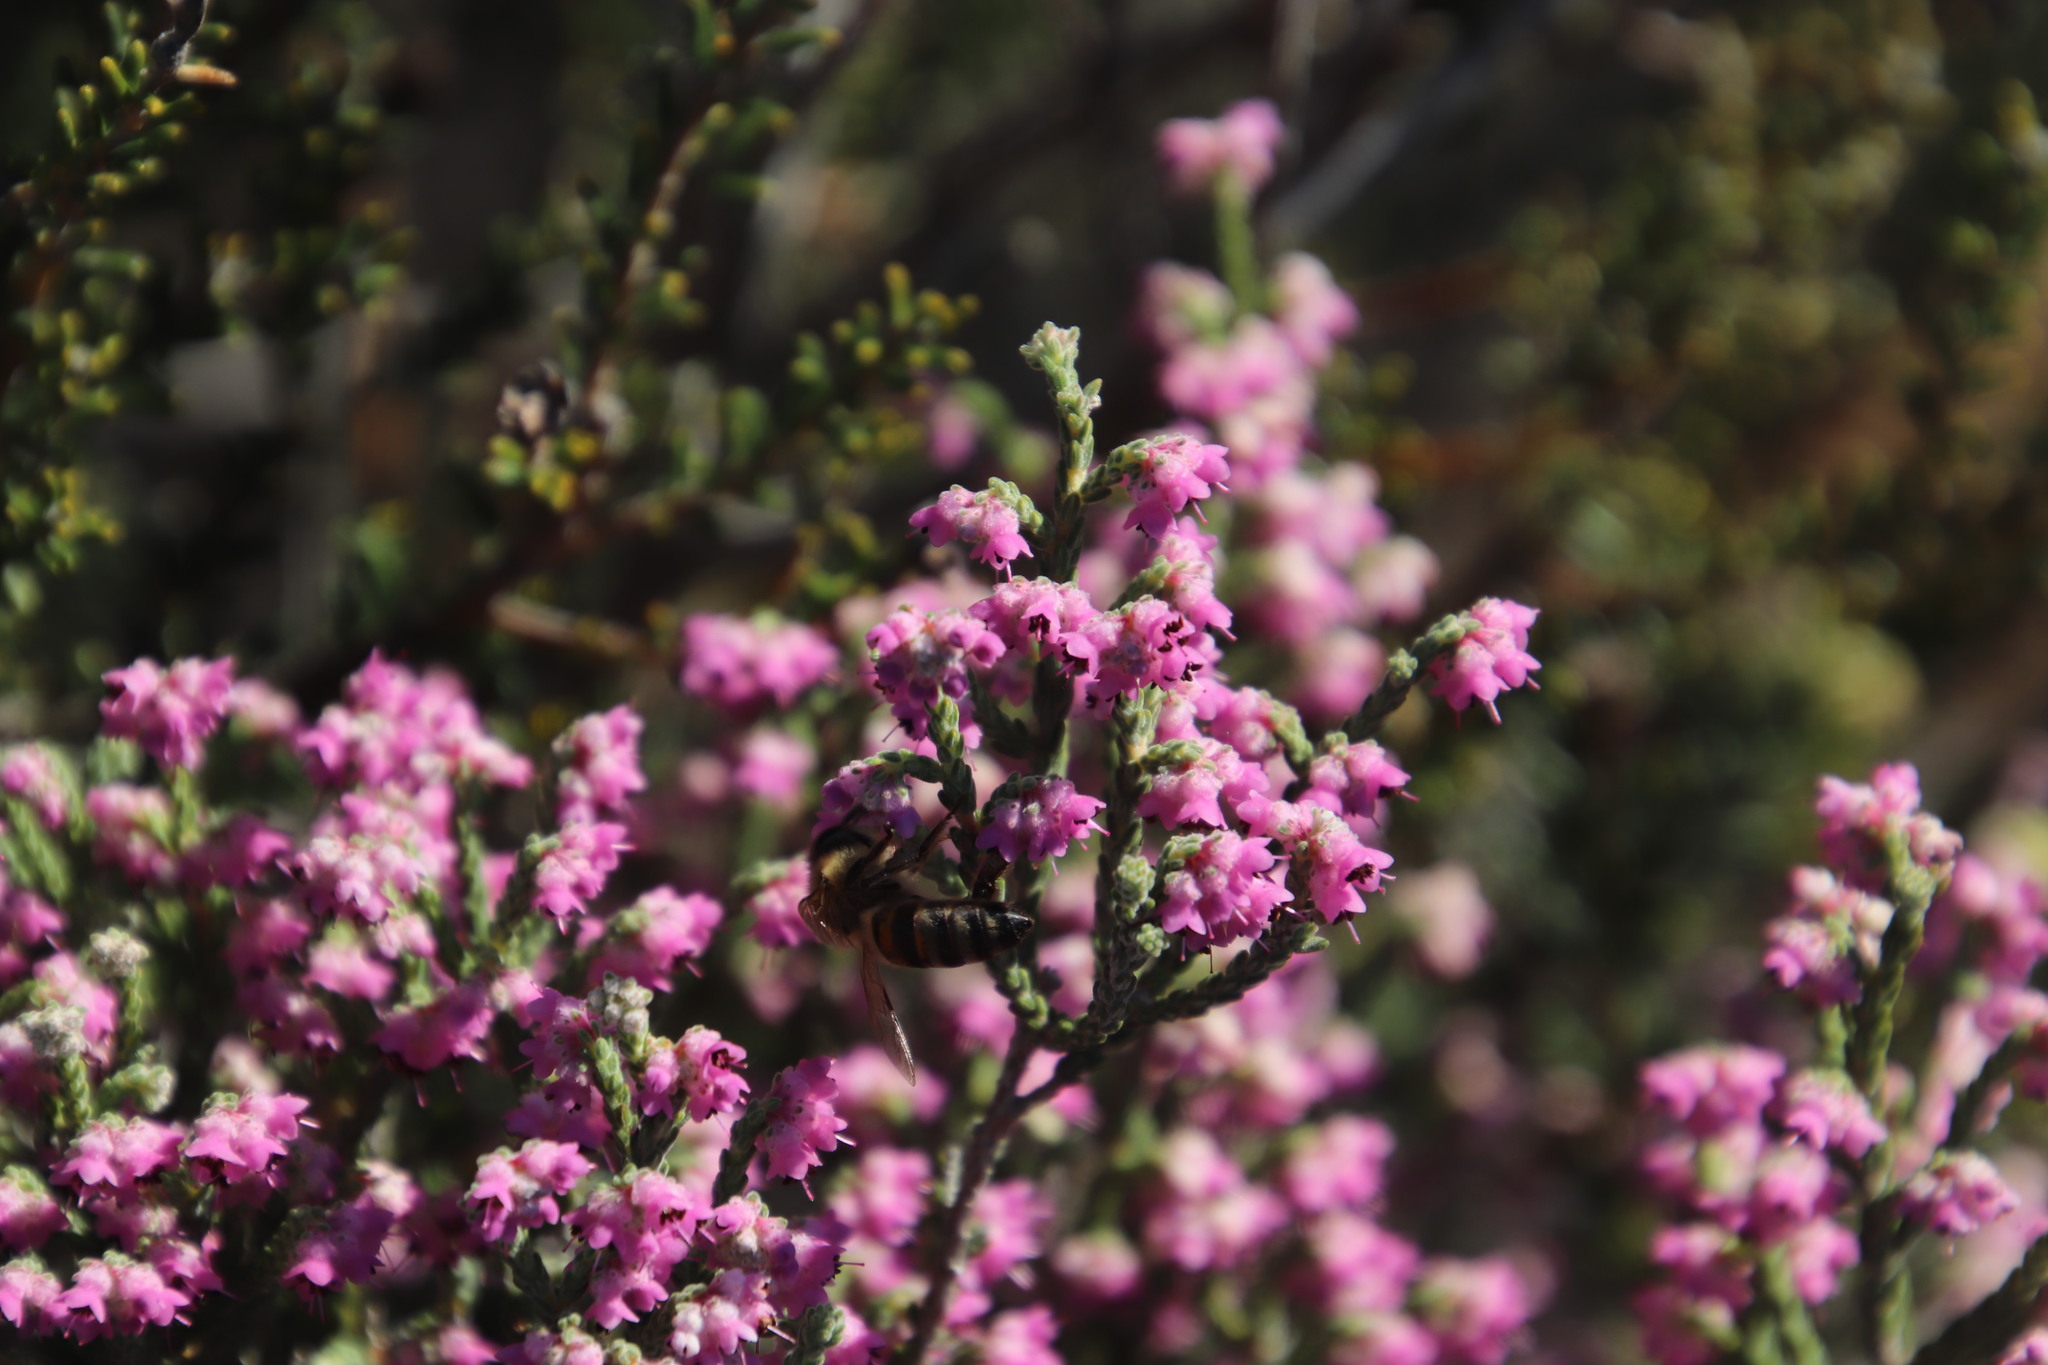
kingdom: Animalia
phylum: Arthropoda
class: Insecta
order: Hymenoptera
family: Apidae
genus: Apis
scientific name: Apis mellifera
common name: Honey bee
